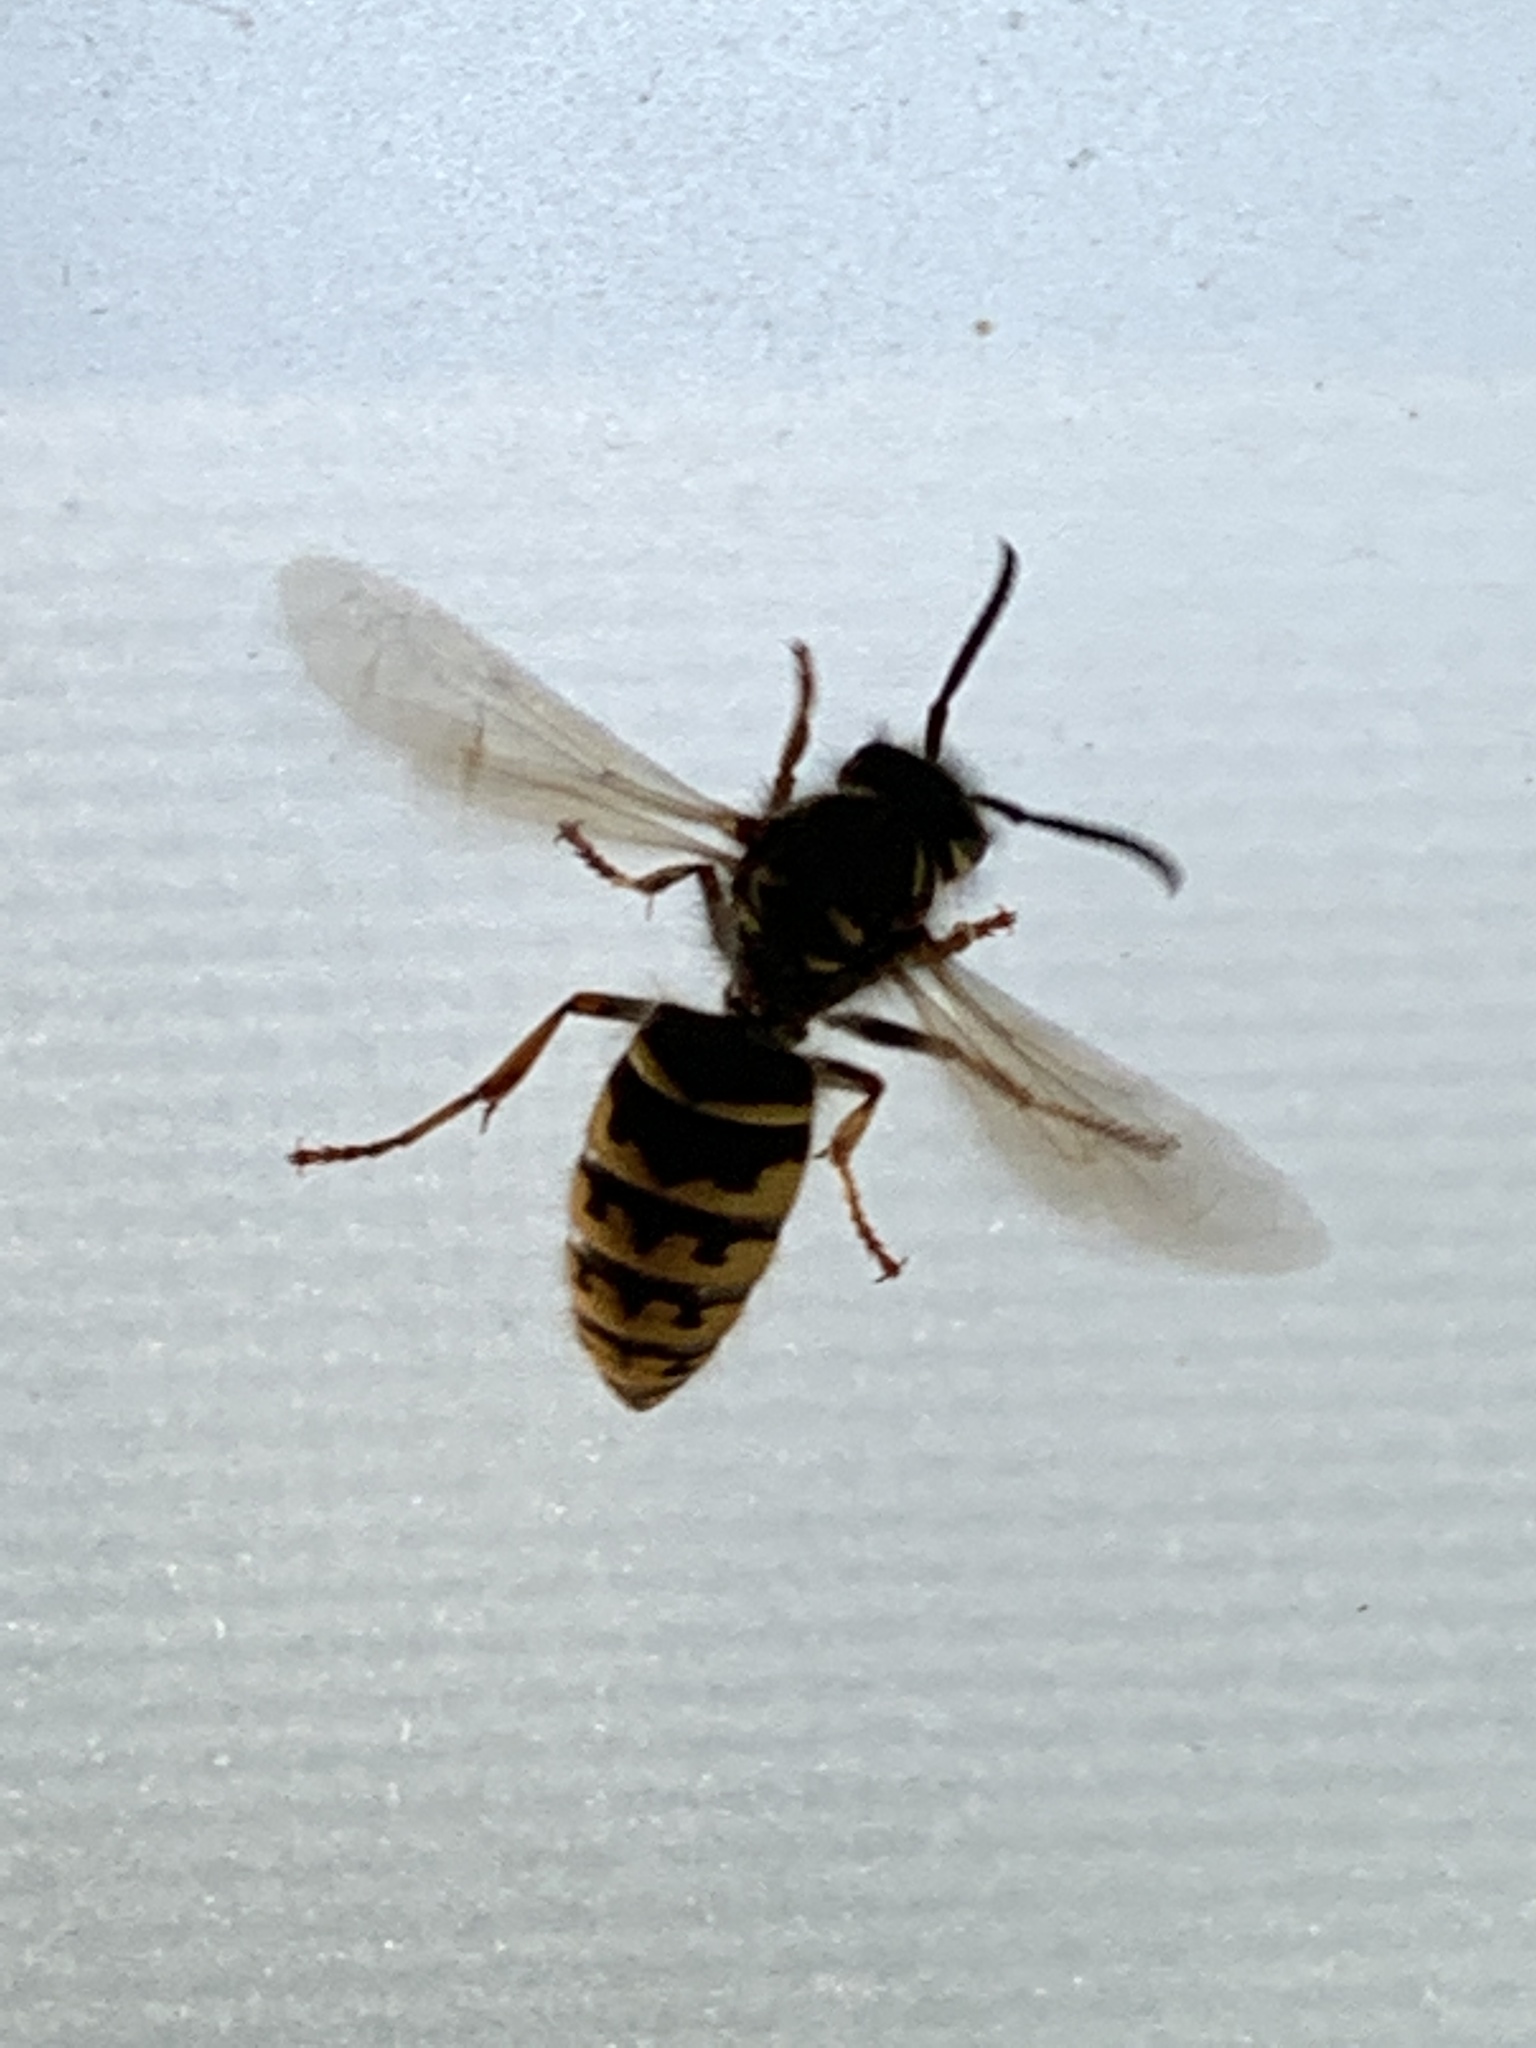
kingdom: Animalia
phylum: Arthropoda
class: Insecta
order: Hymenoptera
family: Vespidae
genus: Vespula
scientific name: Vespula alascensis
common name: Alaska yellowjacket
